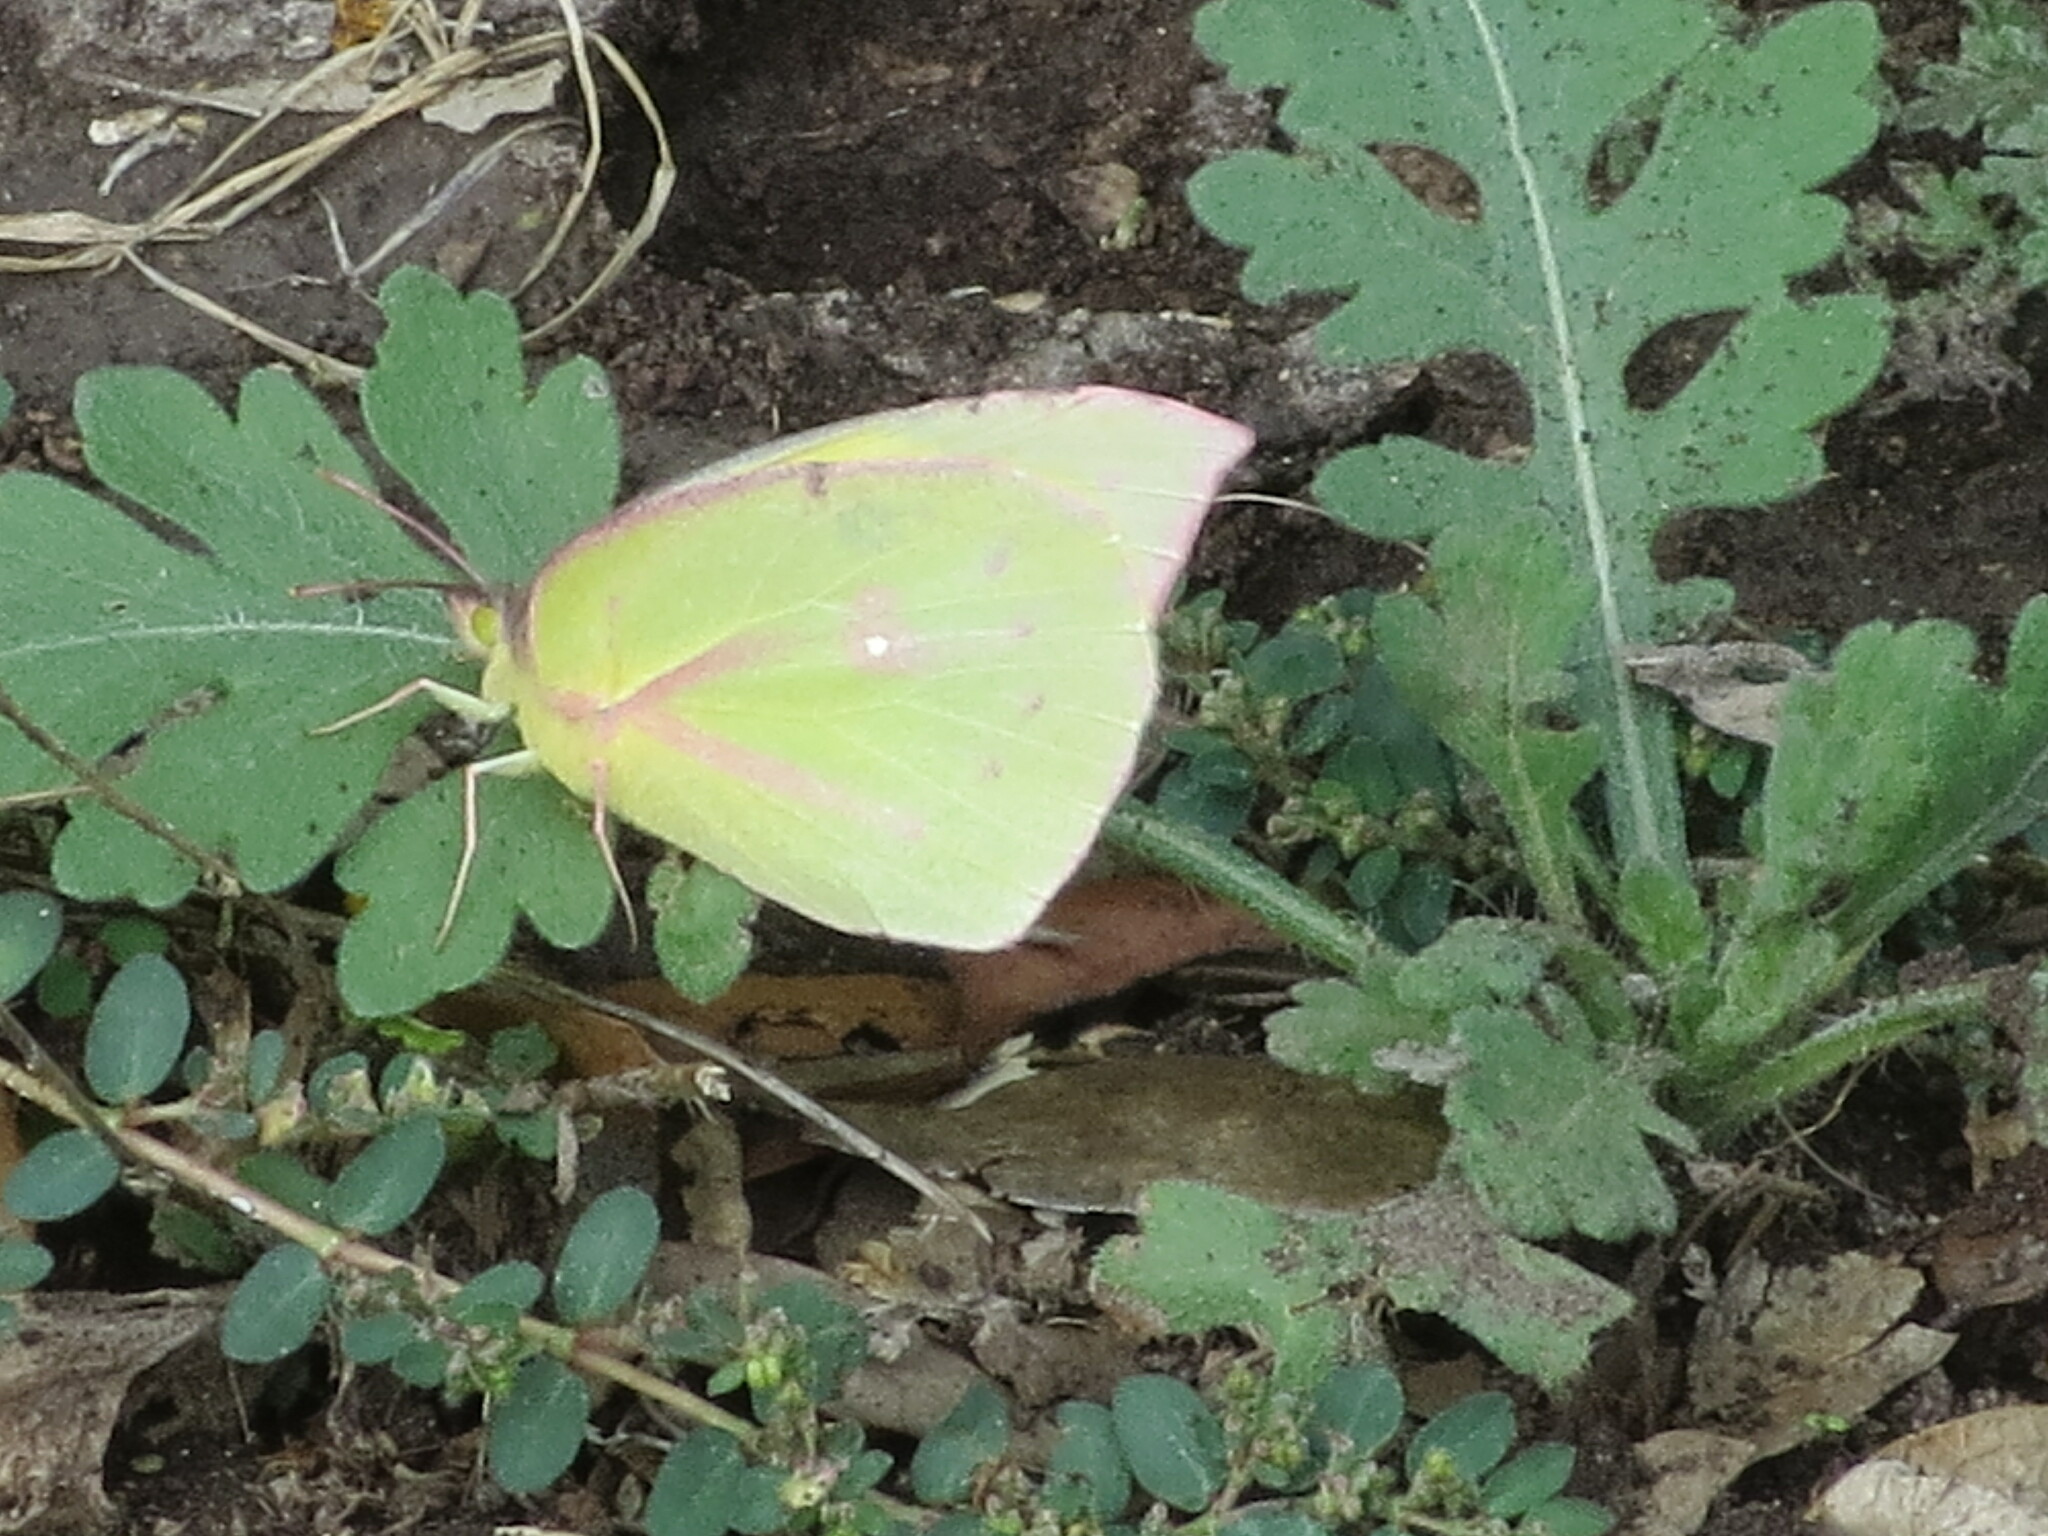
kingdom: Animalia
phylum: Arthropoda
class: Insecta
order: Lepidoptera
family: Pieridae
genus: Zerene
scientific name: Zerene cesonia
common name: Southern dogface
